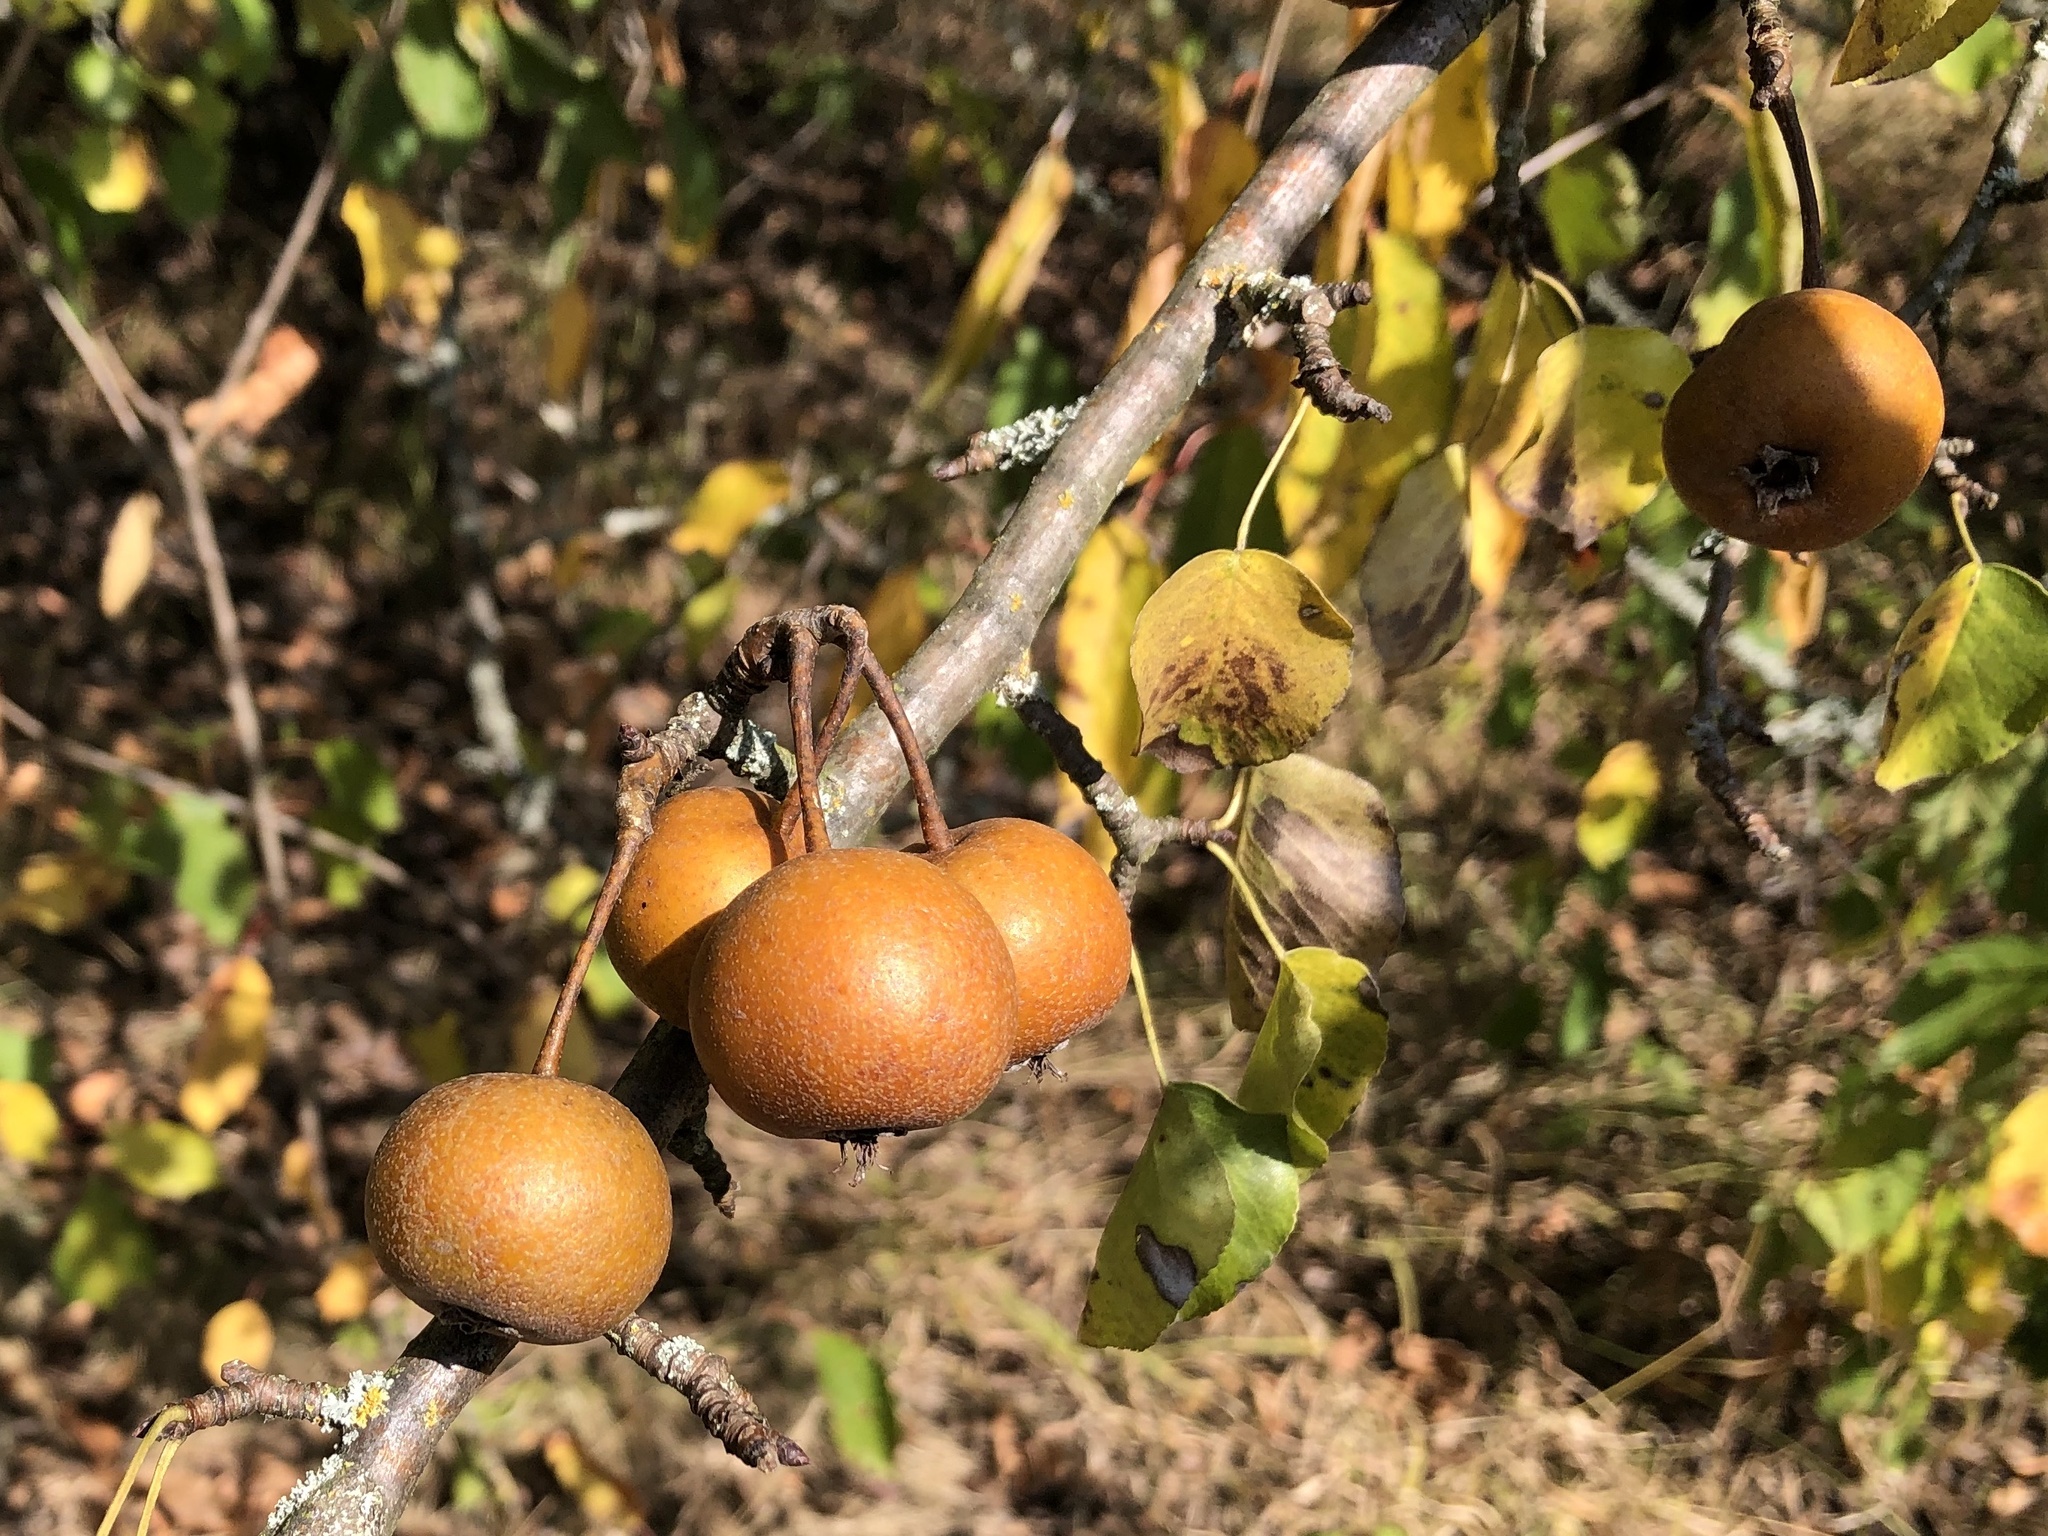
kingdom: Plantae
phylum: Tracheophyta
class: Magnoliopsida
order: Rosales
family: Rosaceae
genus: Pyrus
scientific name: Pyrus
